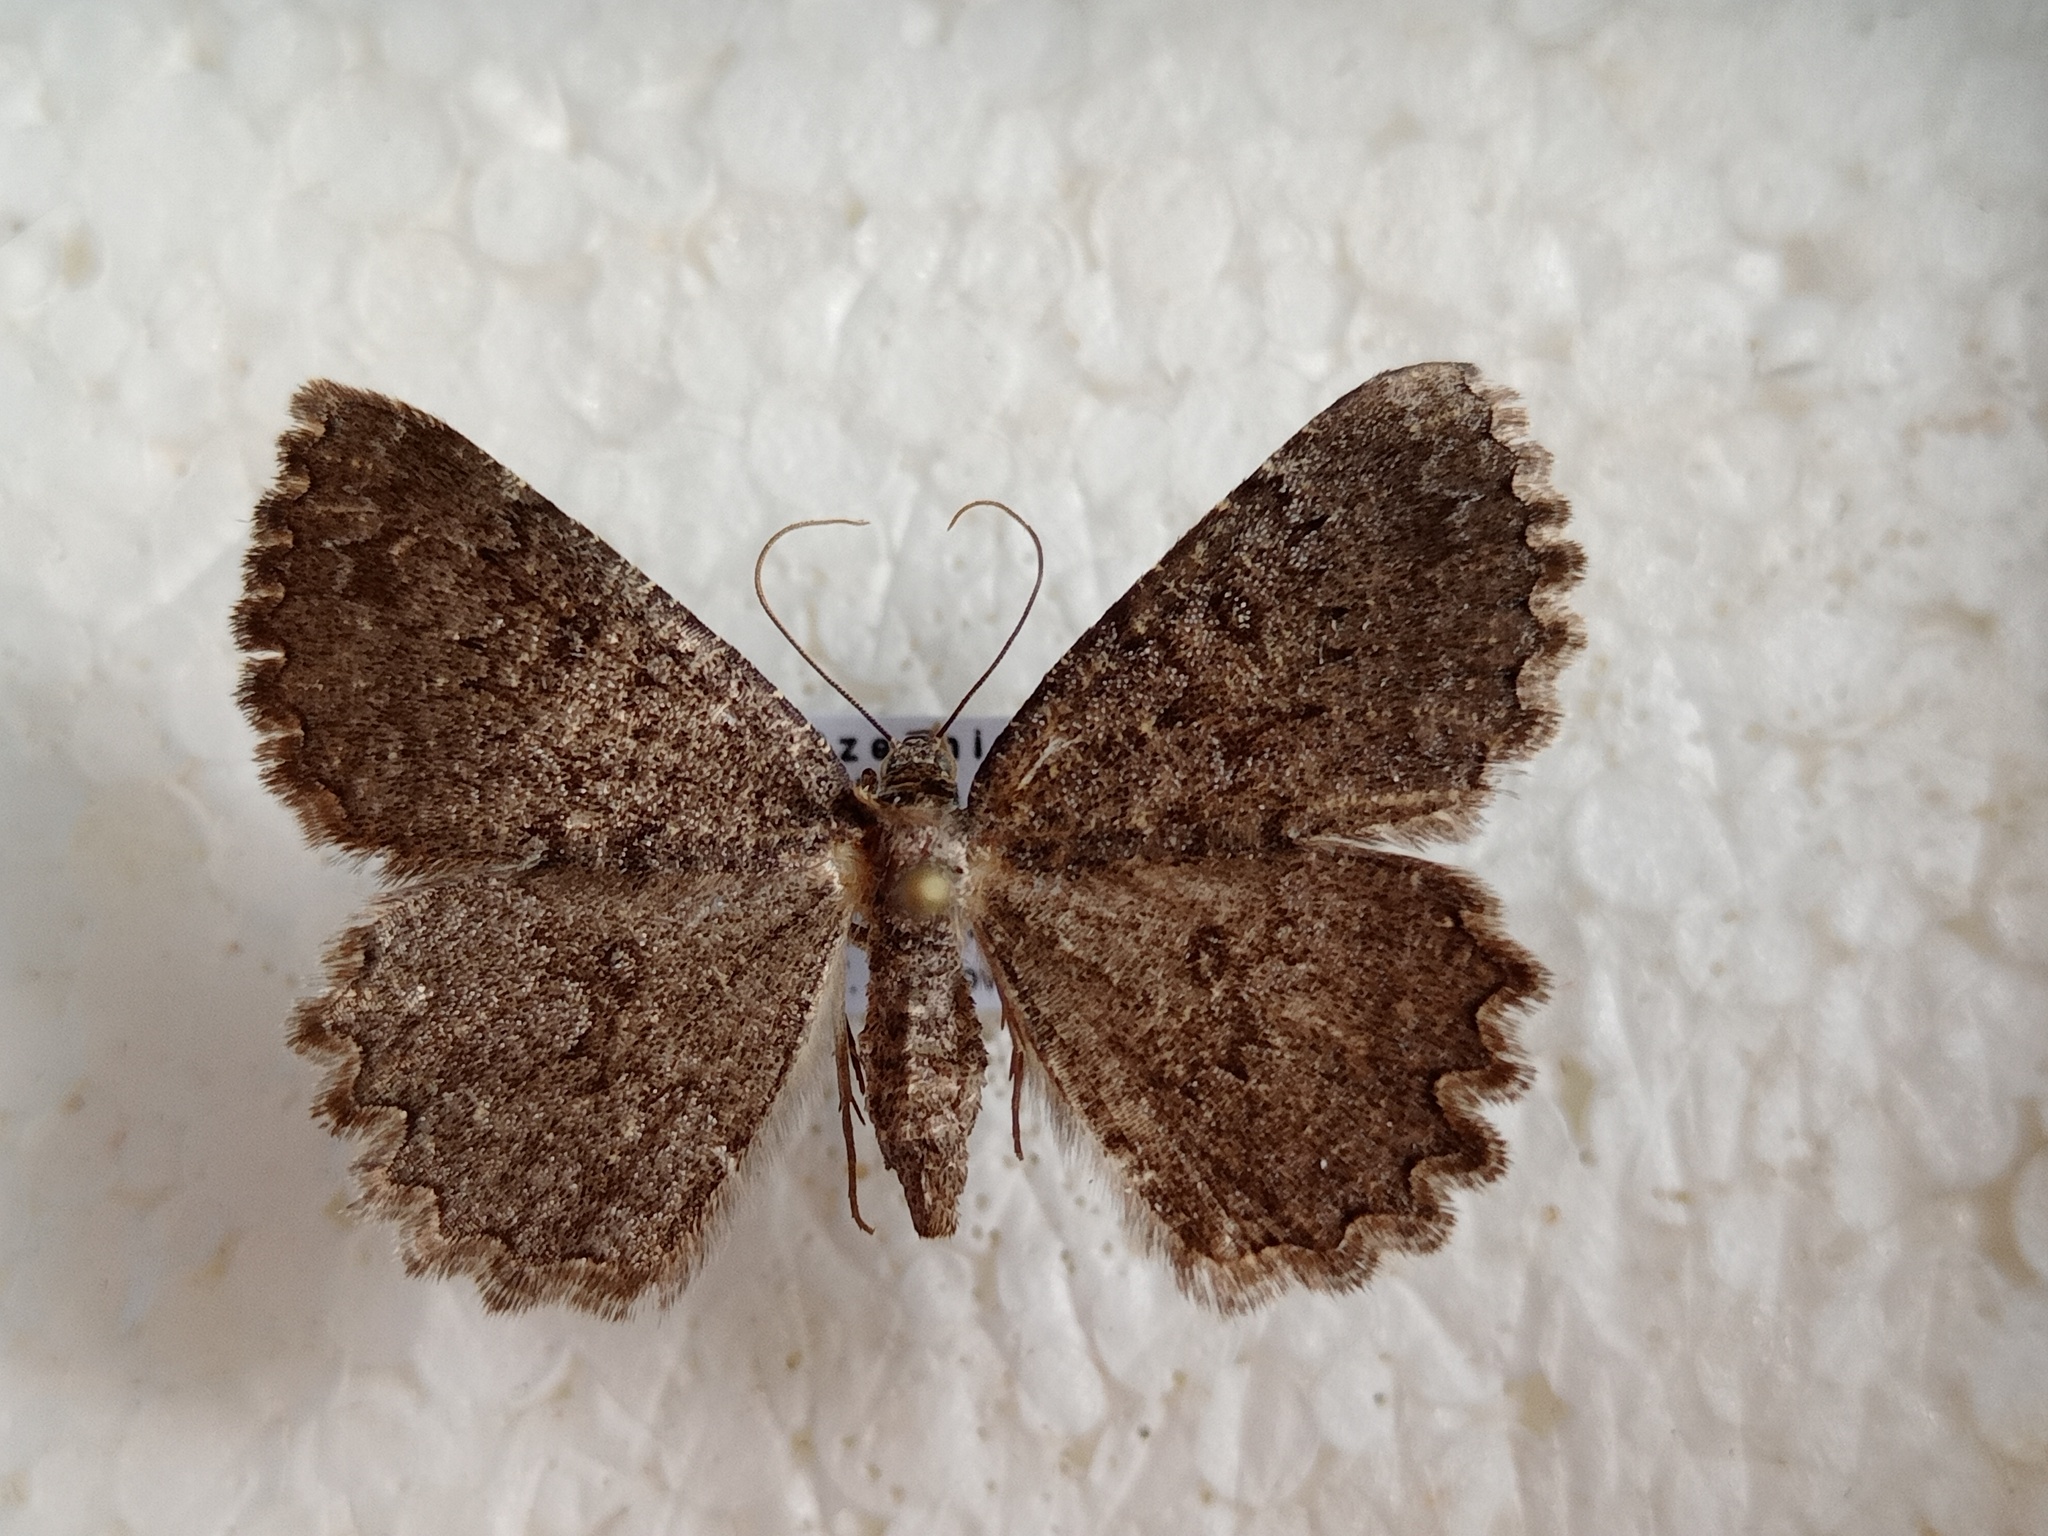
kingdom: Animalia
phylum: Arthropoda
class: Insecta
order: Lepidoptera
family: Geometridae
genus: Charissa
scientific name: Charissa obscurata
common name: Annulet
